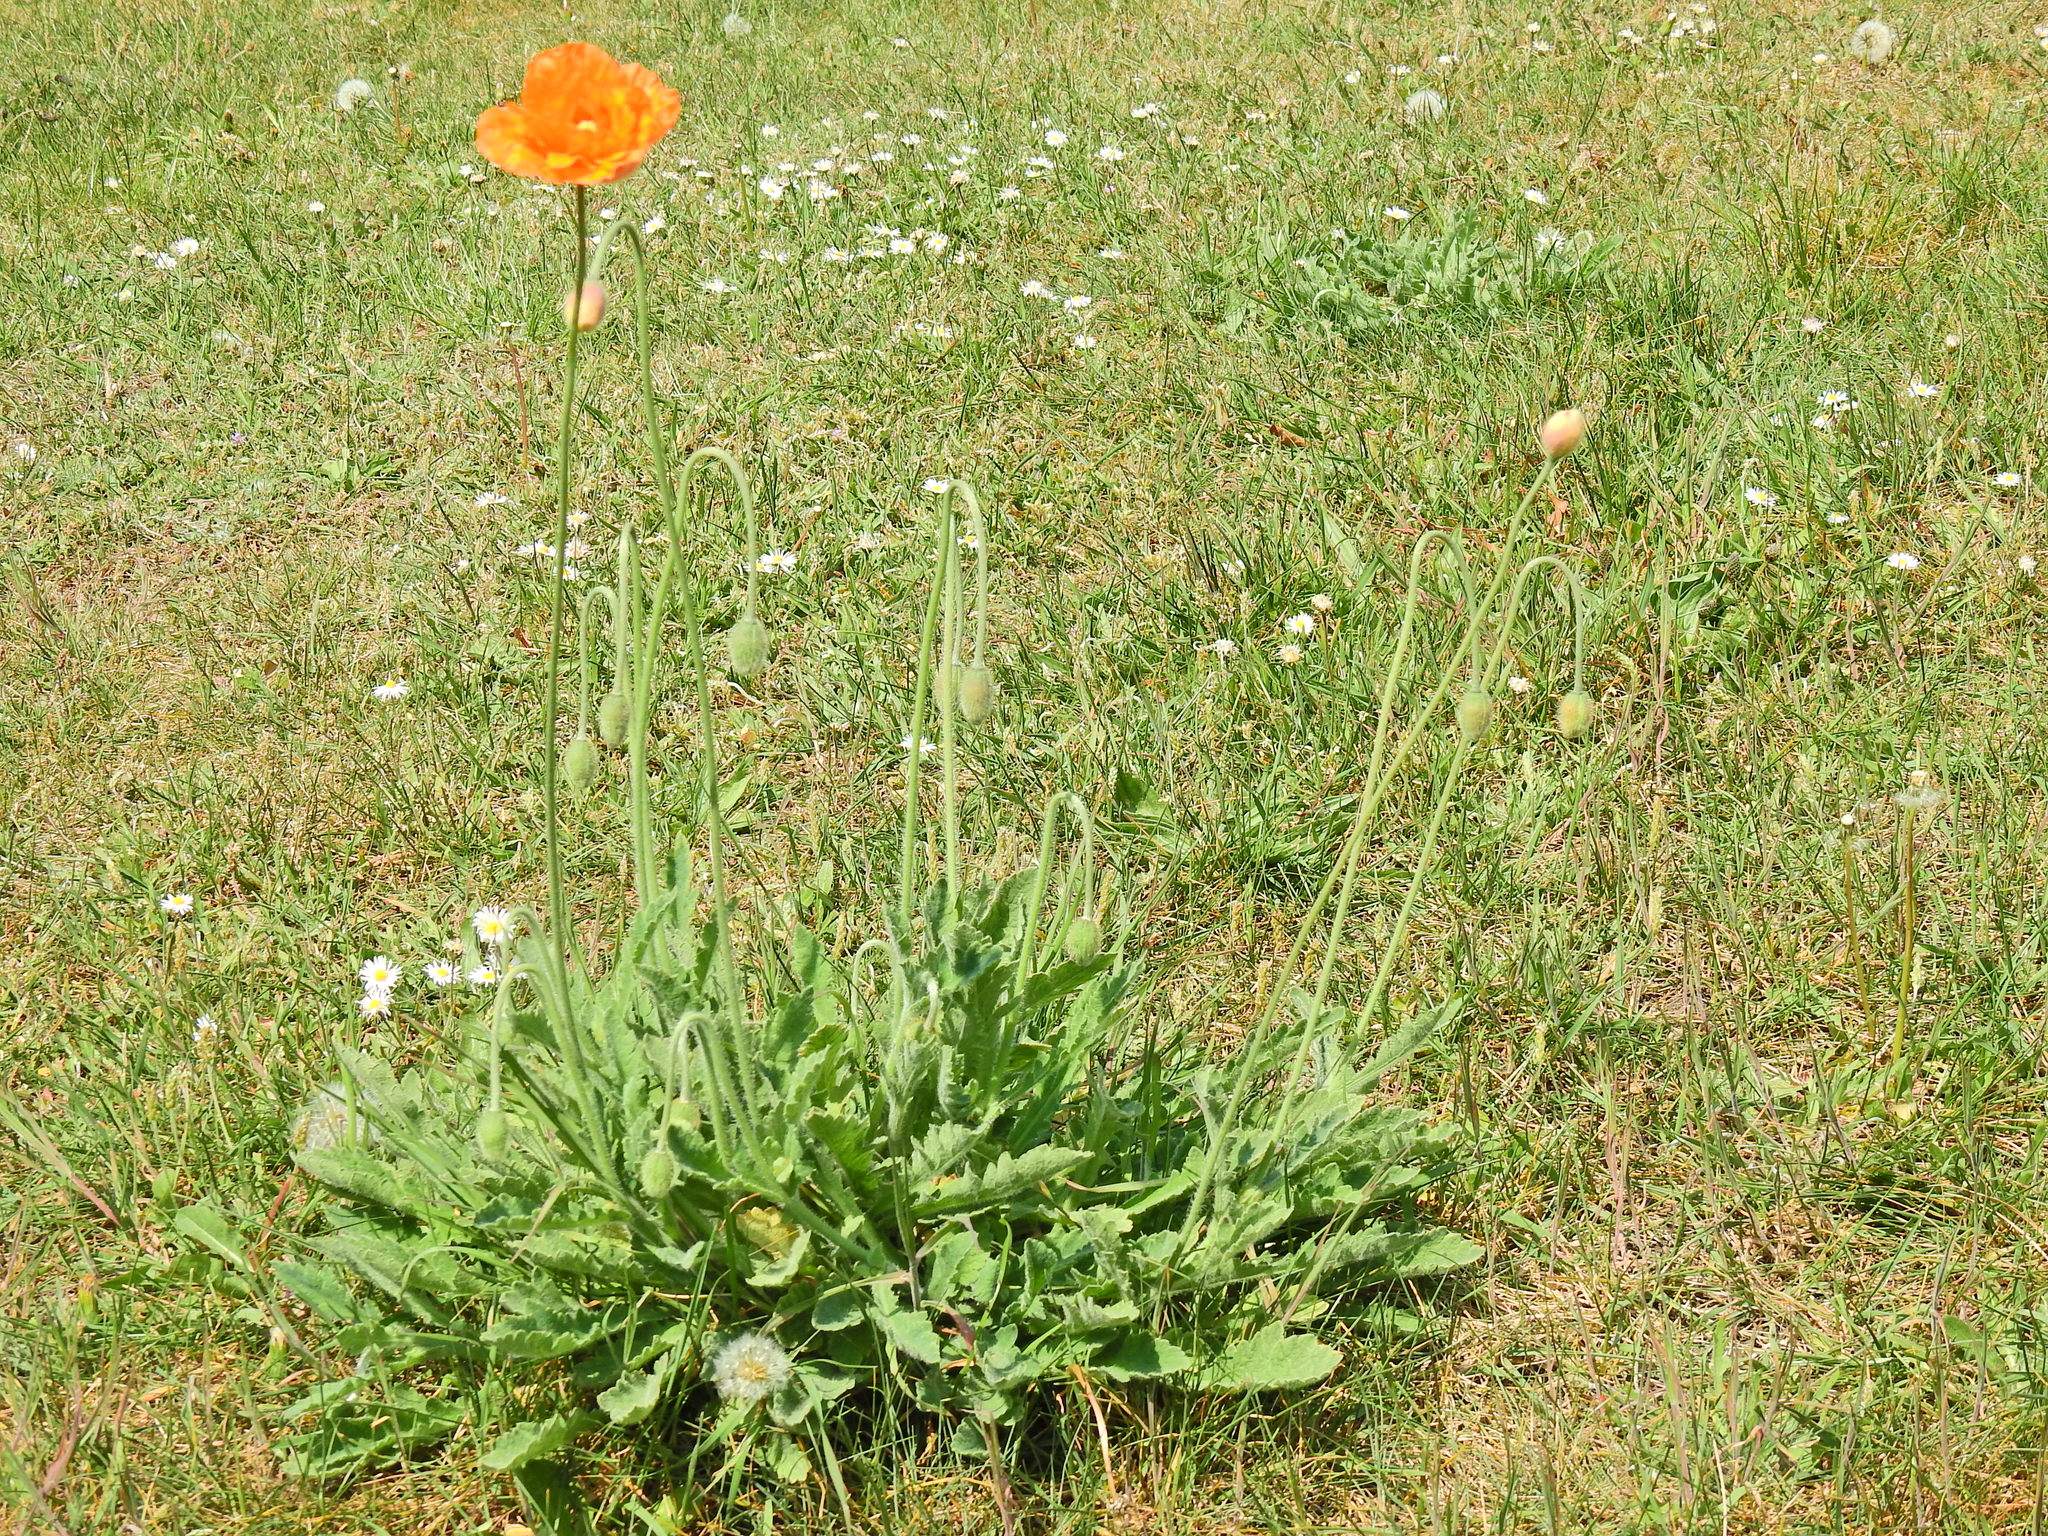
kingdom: Plantae
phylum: Tracheophyta
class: Magnoliopsida
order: Ranunculales
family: Papaveraceae
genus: Papaver
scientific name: Papaver atlanticum
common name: Atlas poppy
